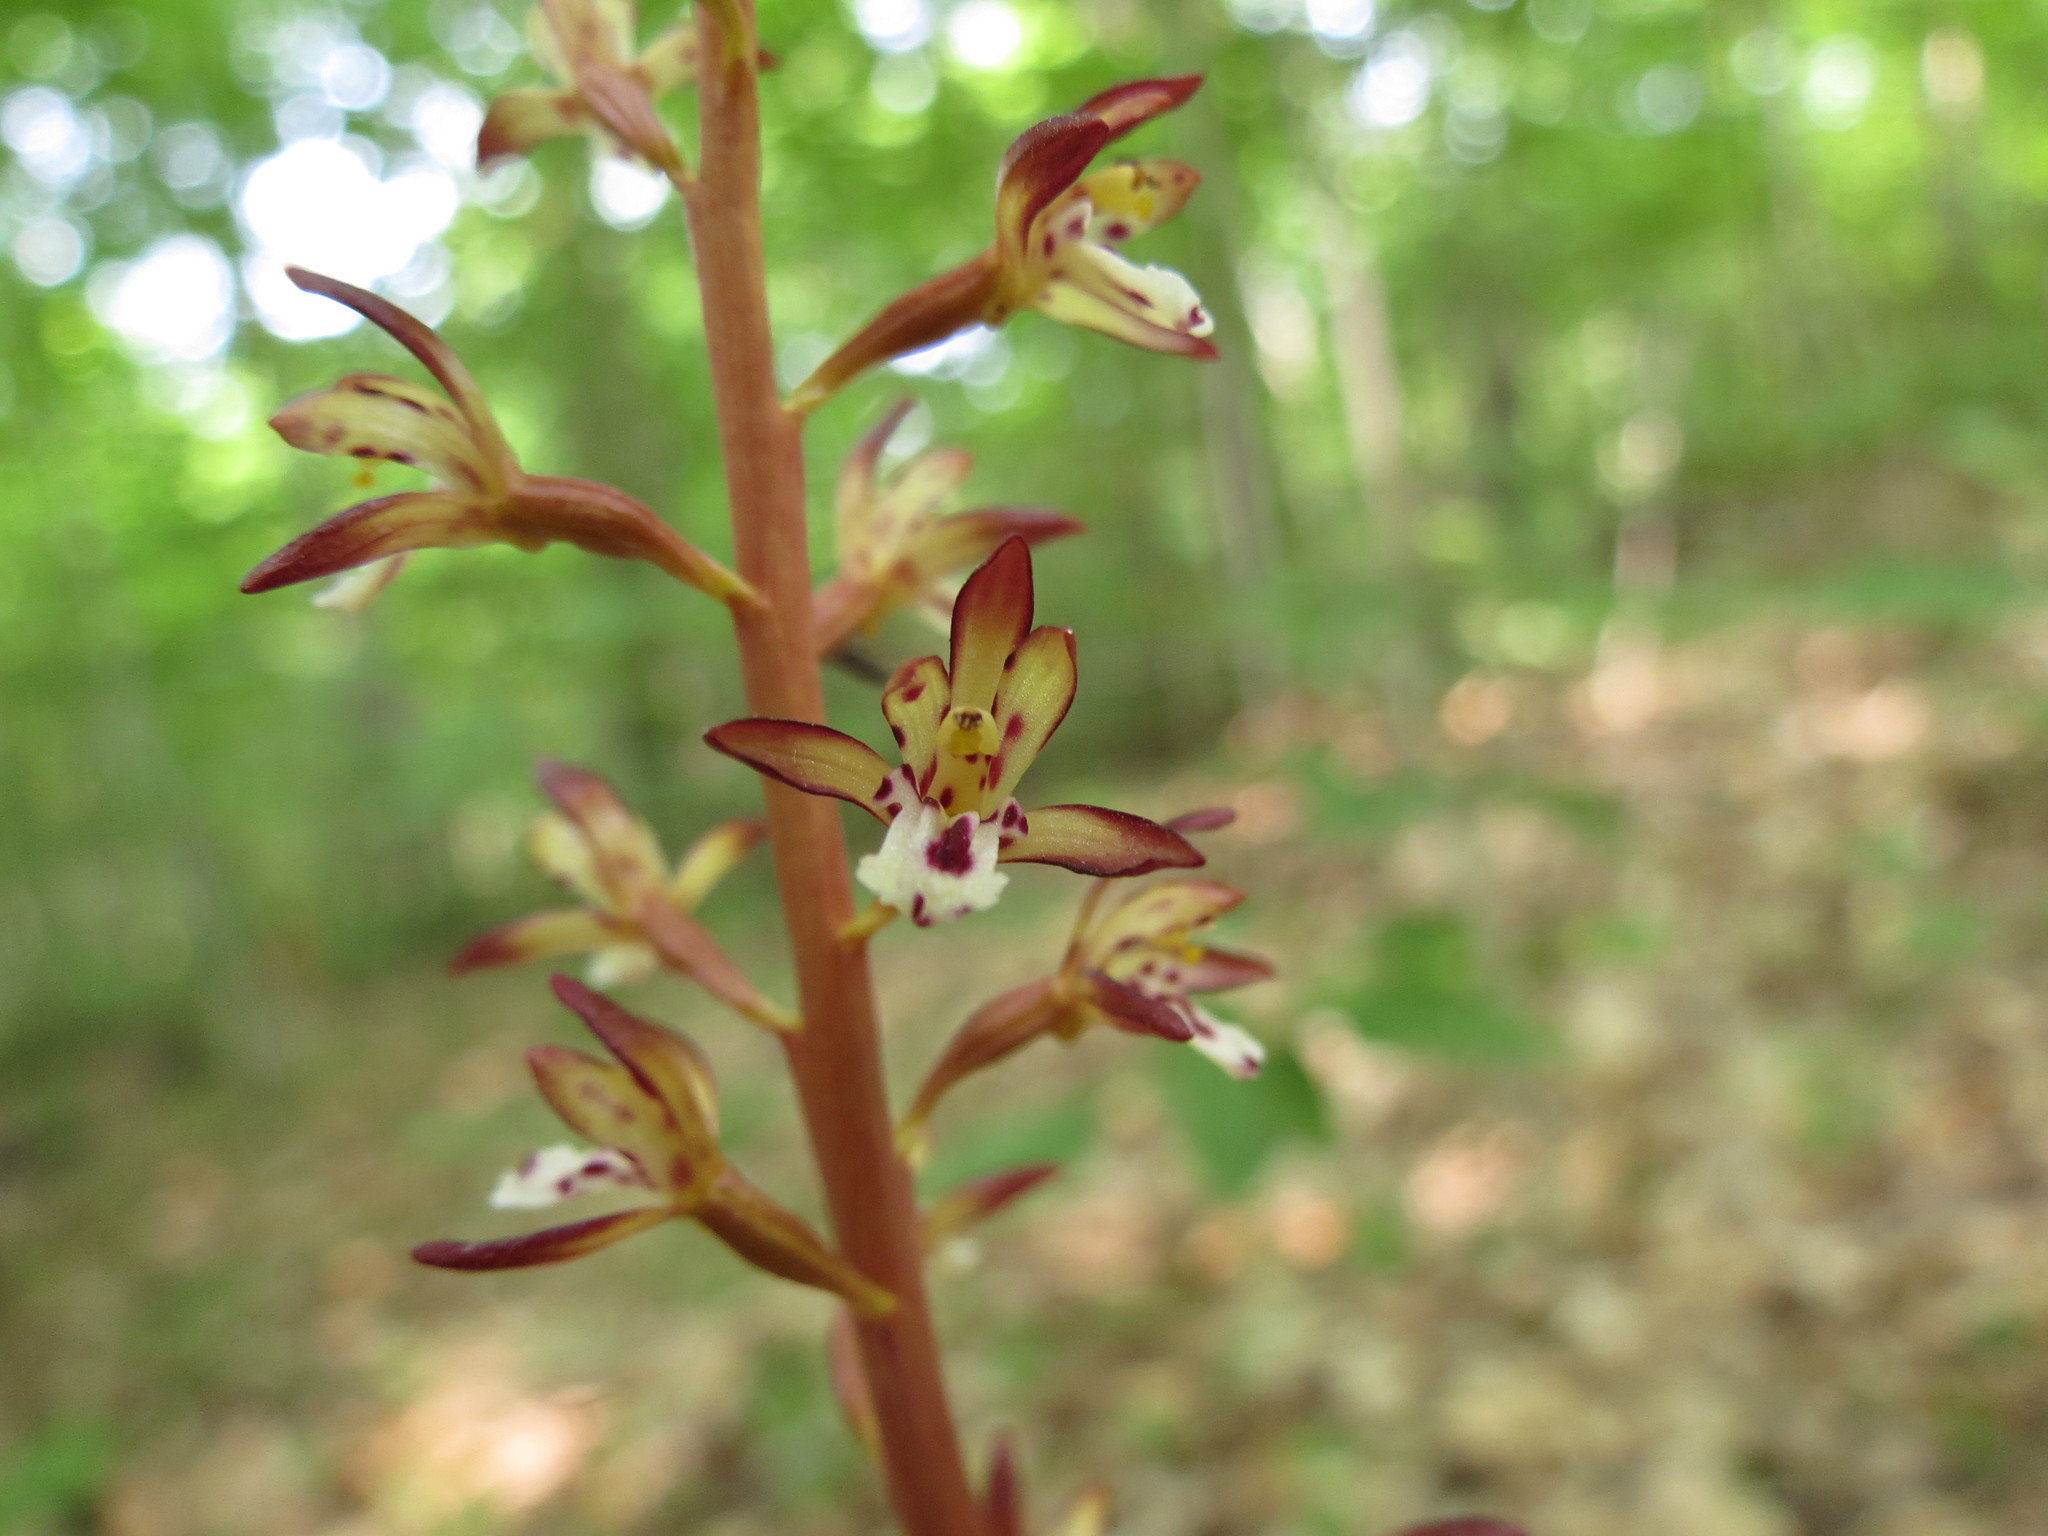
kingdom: Plantae
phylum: Tracheophyta
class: Liliopsida
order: Asparagales
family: Orchidaceae
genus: Corallorhiza
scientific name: Corallorhiza maculata
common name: Spotted coralroot
